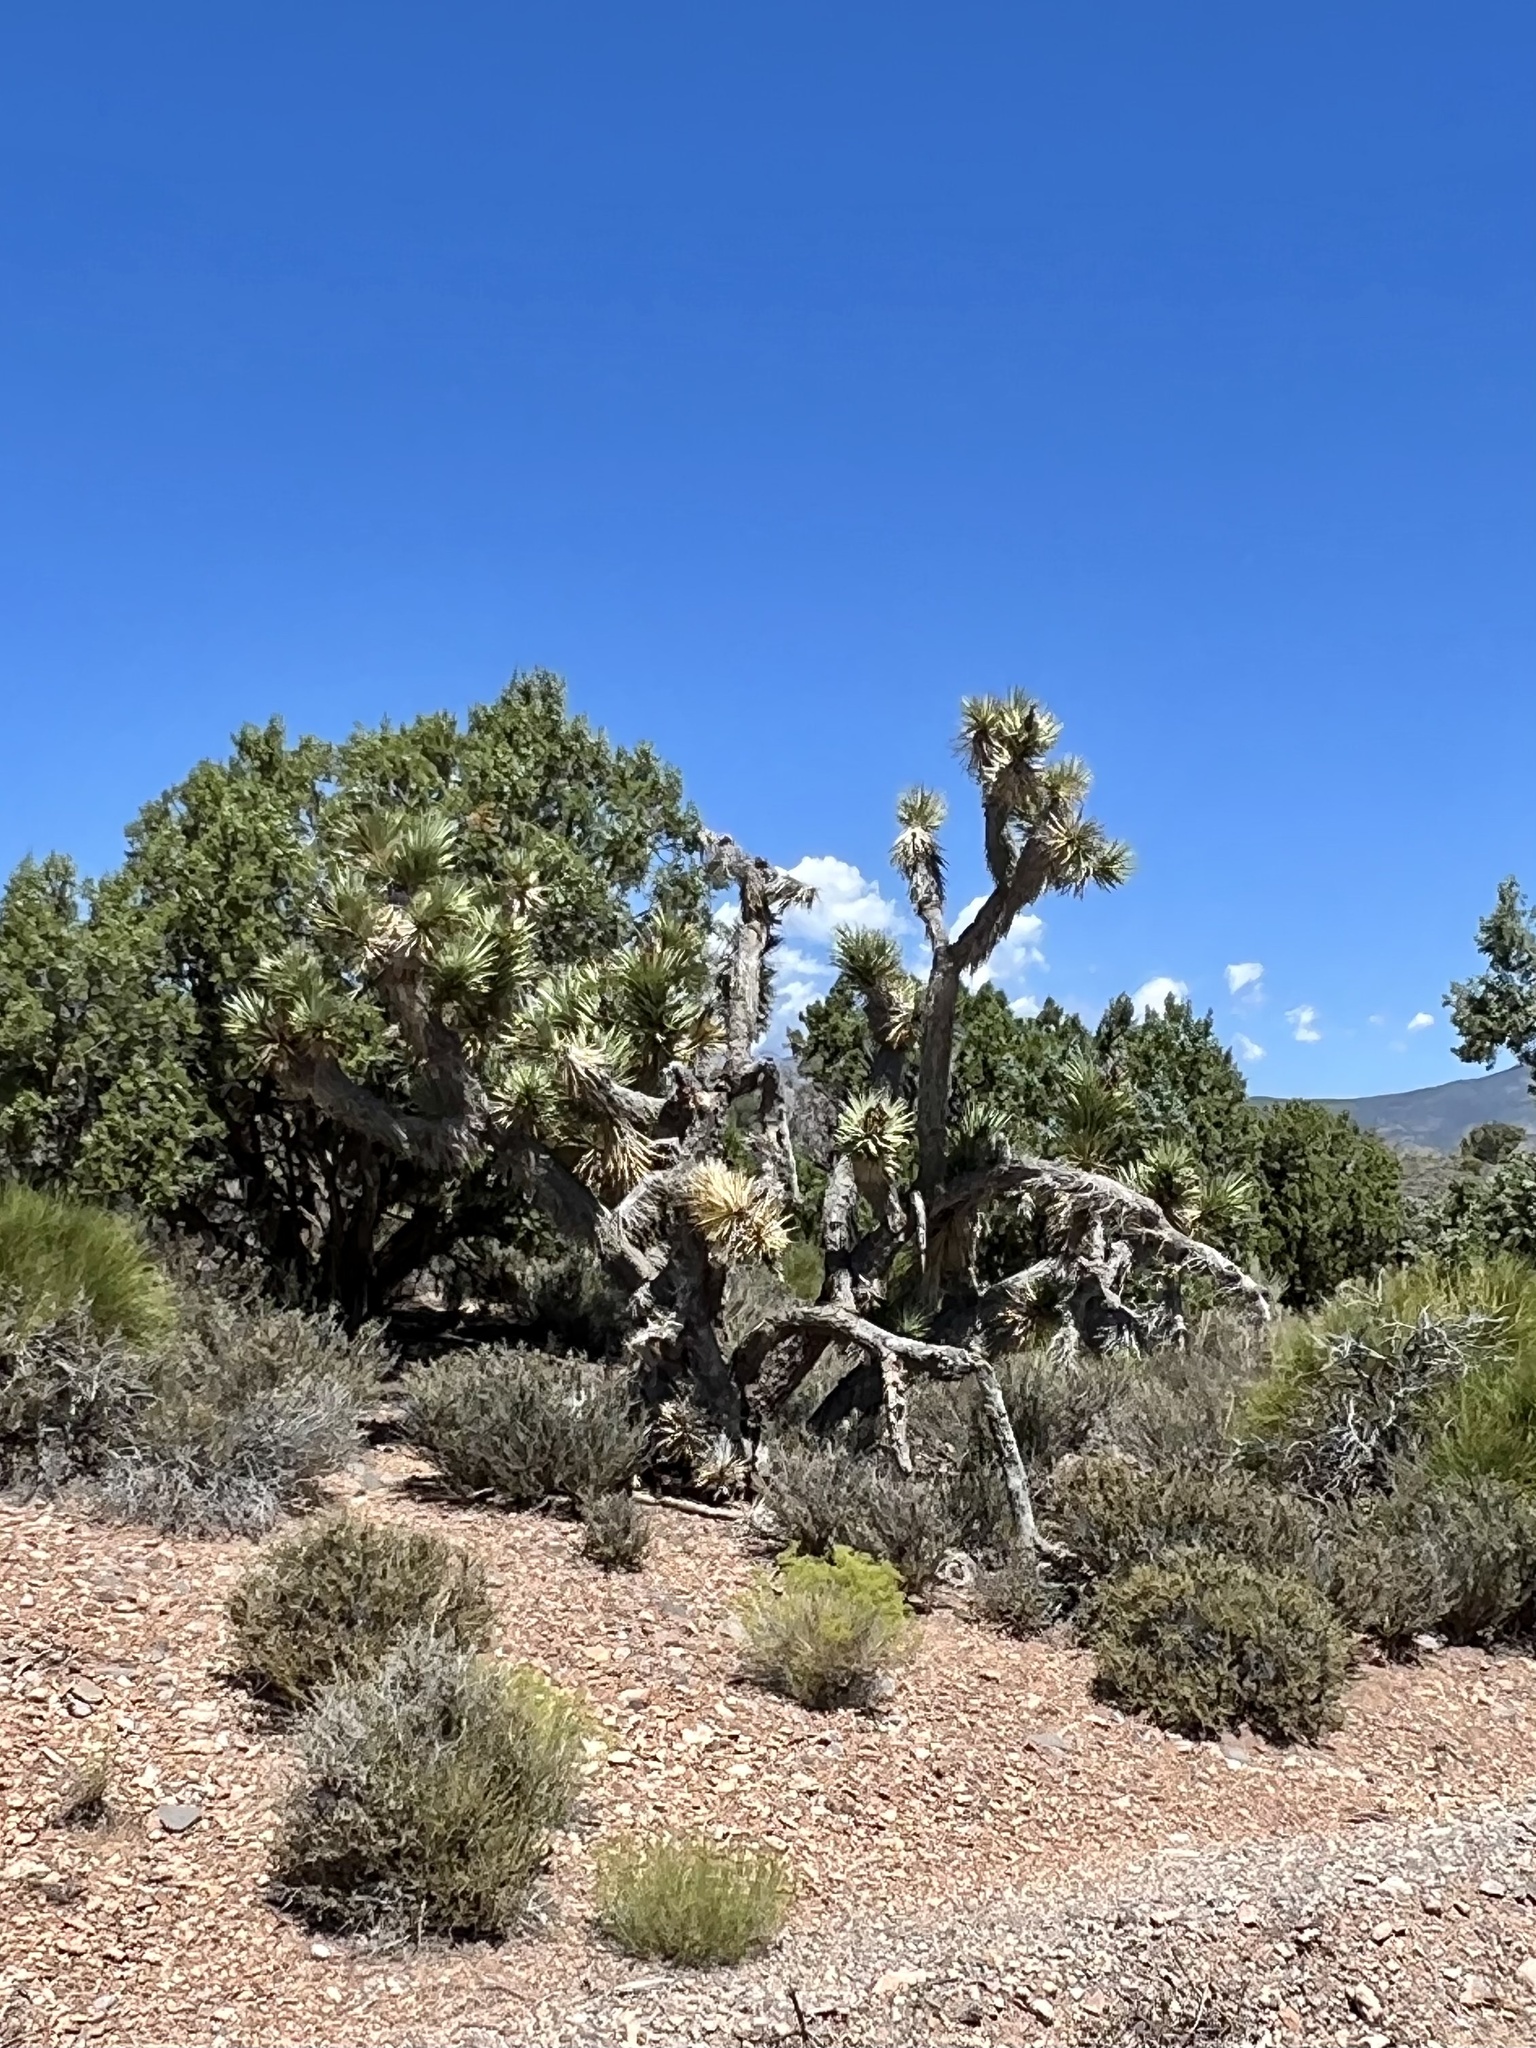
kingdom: Plantae
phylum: Tracheophyta
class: Liliopsida
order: Asparagales
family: Asparagaceae
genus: Yucca
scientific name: Yucca brevifolia
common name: Joshua tree
